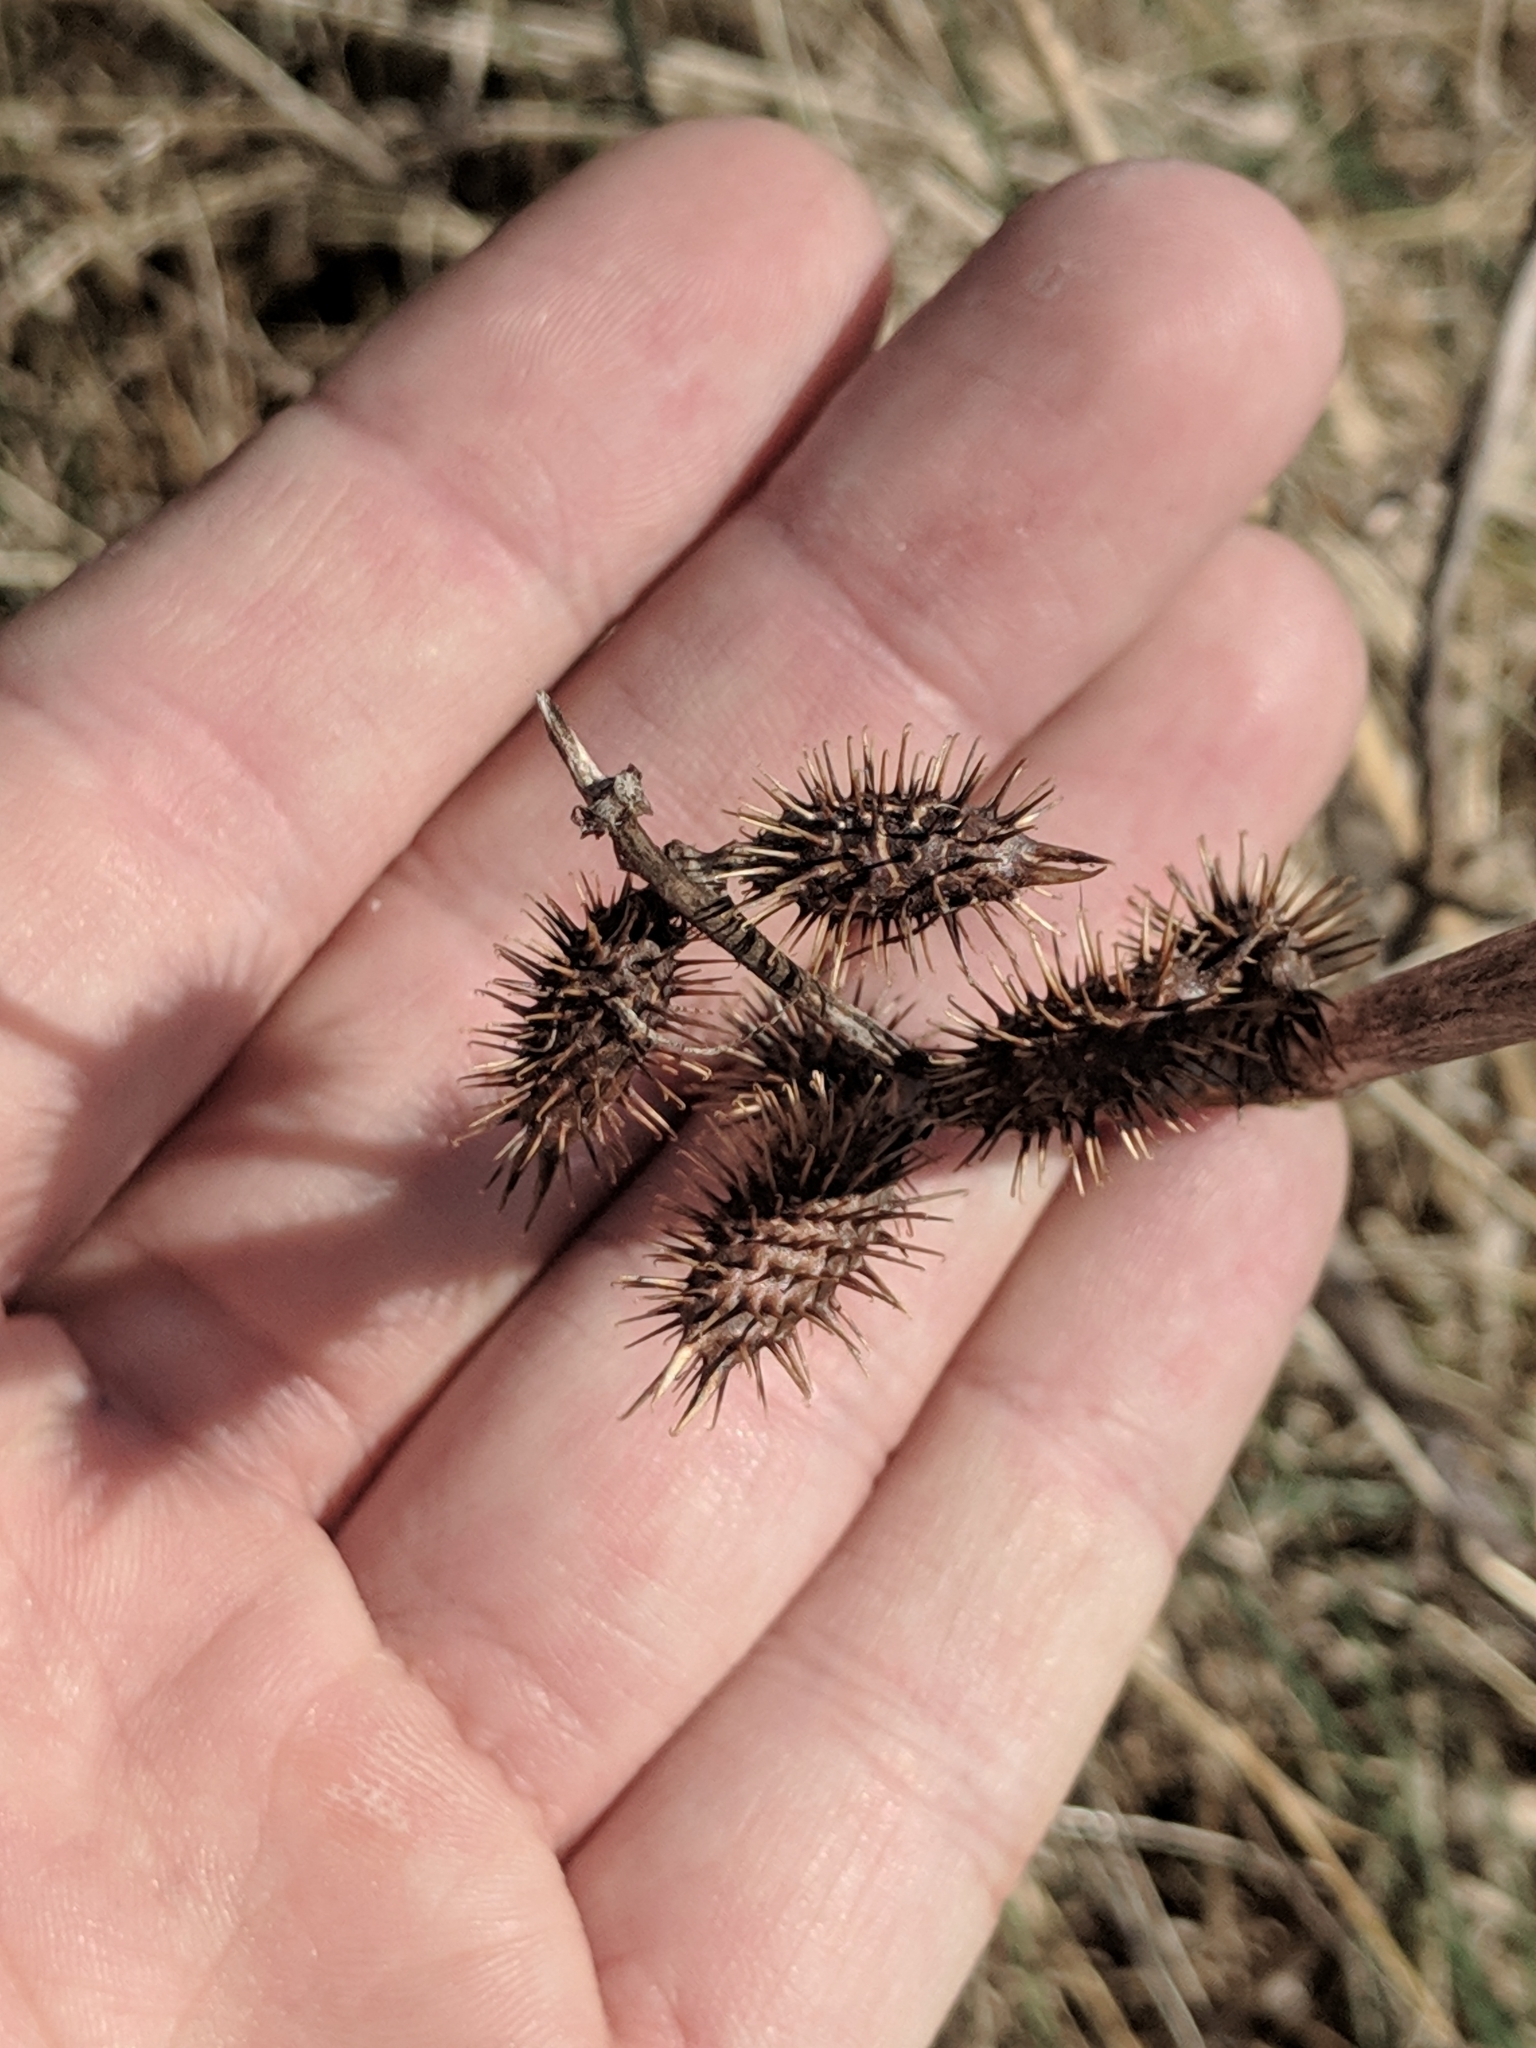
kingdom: Plantae
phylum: Tracheophyta
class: Magnoliopsida
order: Asterales
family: Asteraceae
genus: Xanthium
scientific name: Xanthium strumarium
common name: Rough cocklebur
